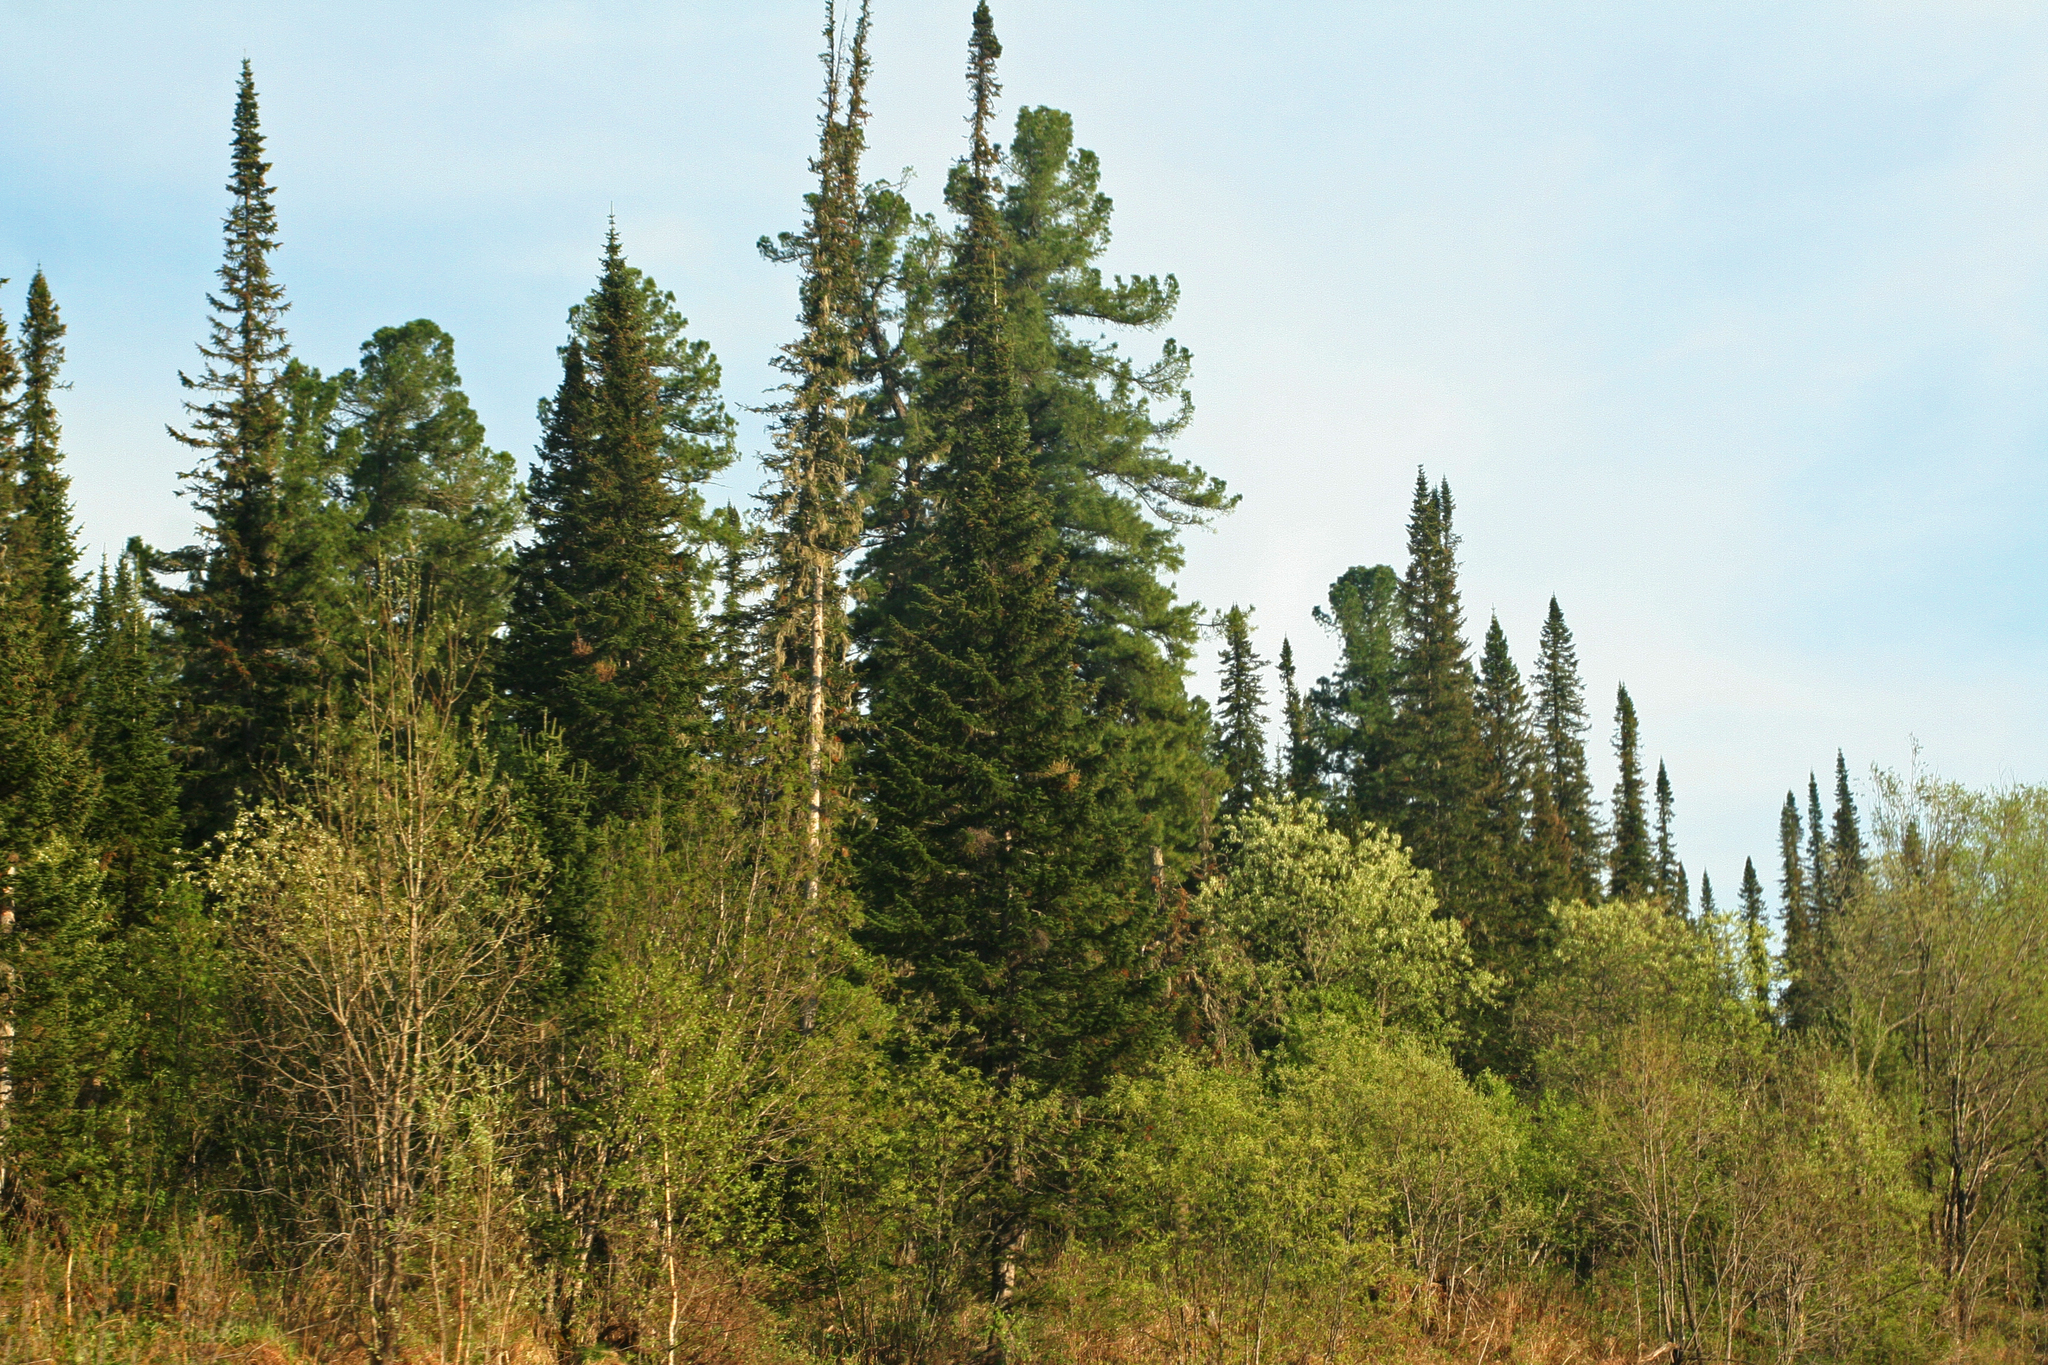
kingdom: Plantae
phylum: Tracheophyta
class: Pinopsida
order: Pinales
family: Pinaceae
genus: Pinus
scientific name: Pinus sibirica
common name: Siberian pine
